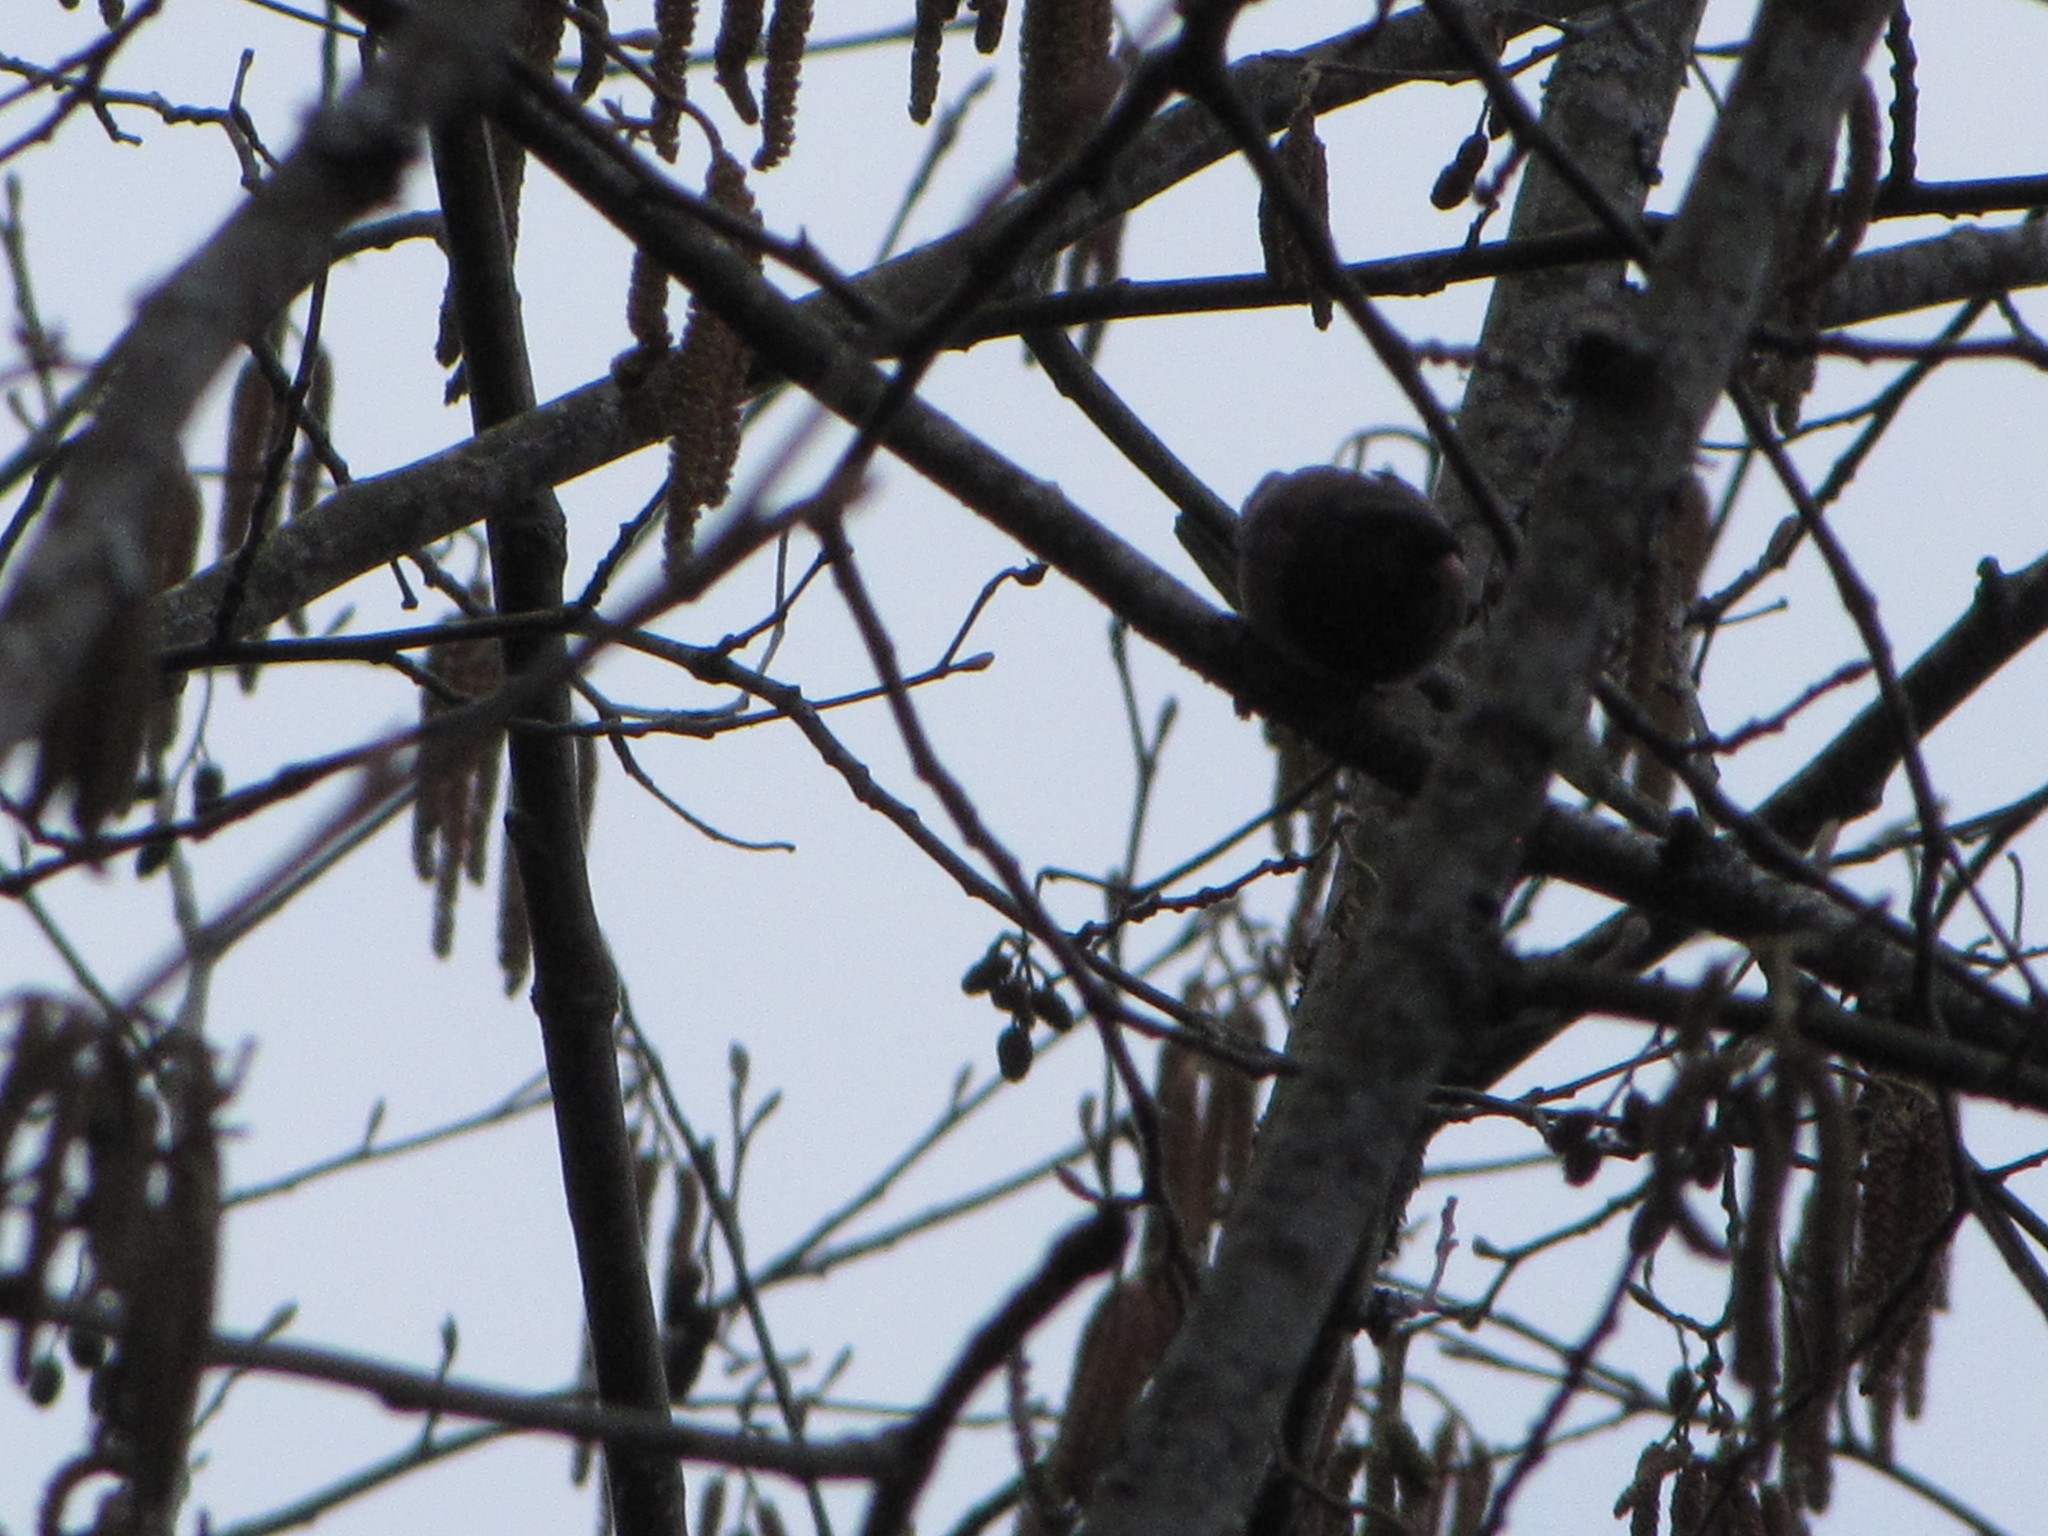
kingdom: Animalia
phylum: Chordata
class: Aves
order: Passeriformes
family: Passerellidae
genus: Junco
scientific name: Junco hyemalis
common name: Dark-eyed junco
